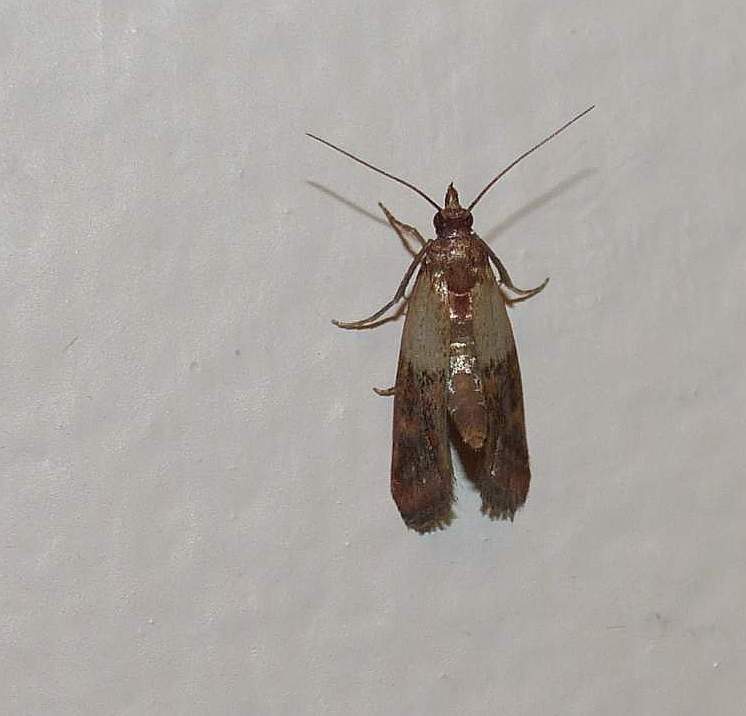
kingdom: Animalia
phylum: Arthropoda
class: Insecta
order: Lepidoptera
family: Pyralidae
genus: Plodia
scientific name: Plodia interpunctella
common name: Indian meal moth
